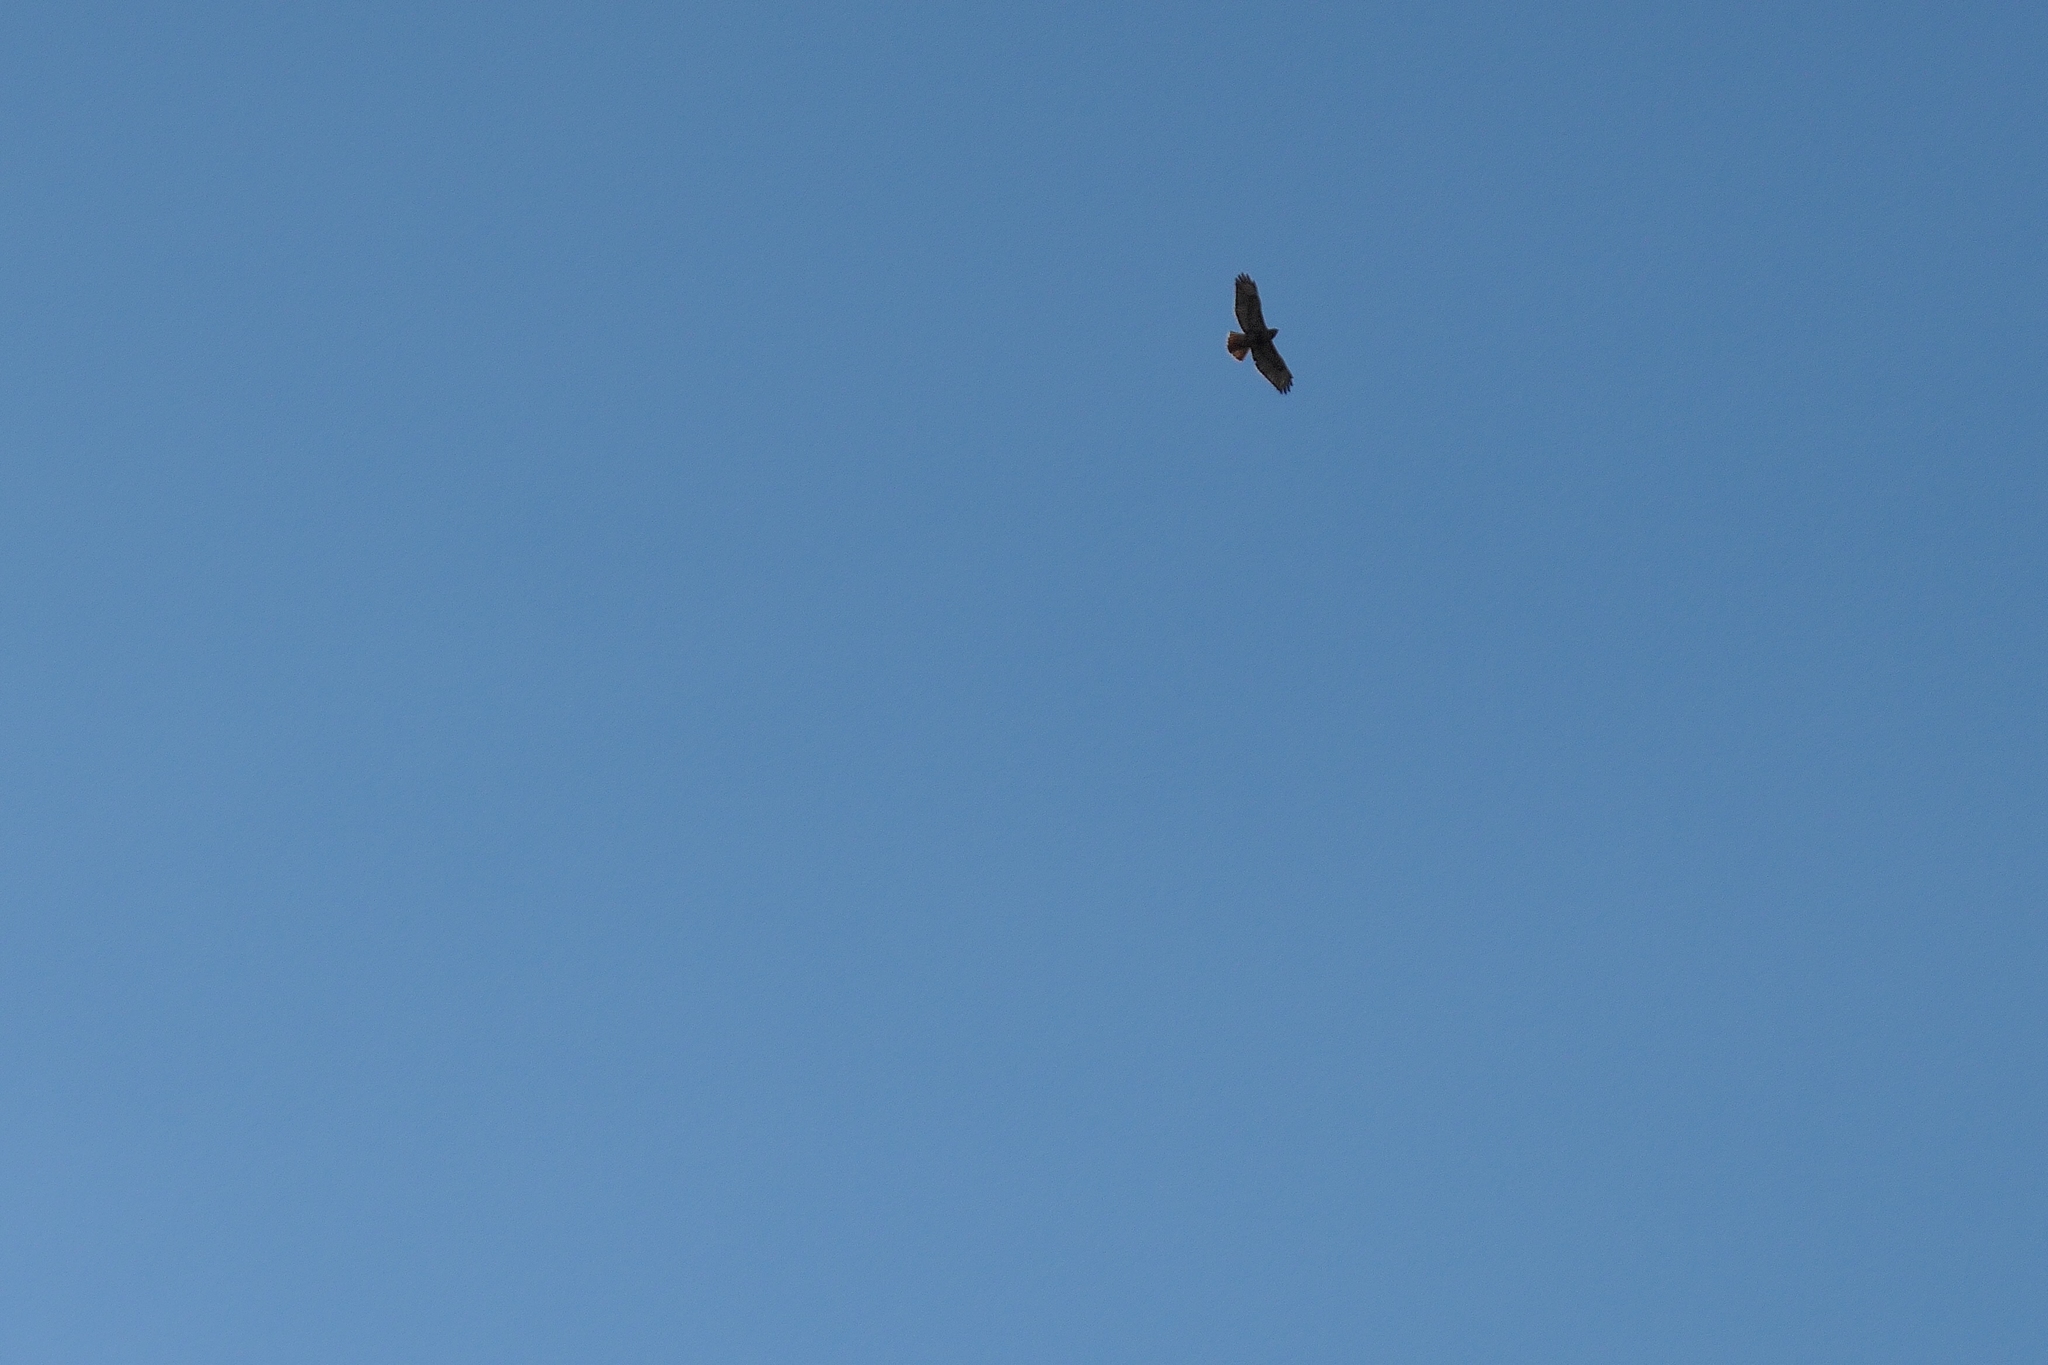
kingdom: Animalia
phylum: Chordata
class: Aves
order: Accipitriformes
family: Accipitridae
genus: Buteo
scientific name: Buteo jamaicensis
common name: Red-tailed hawk
